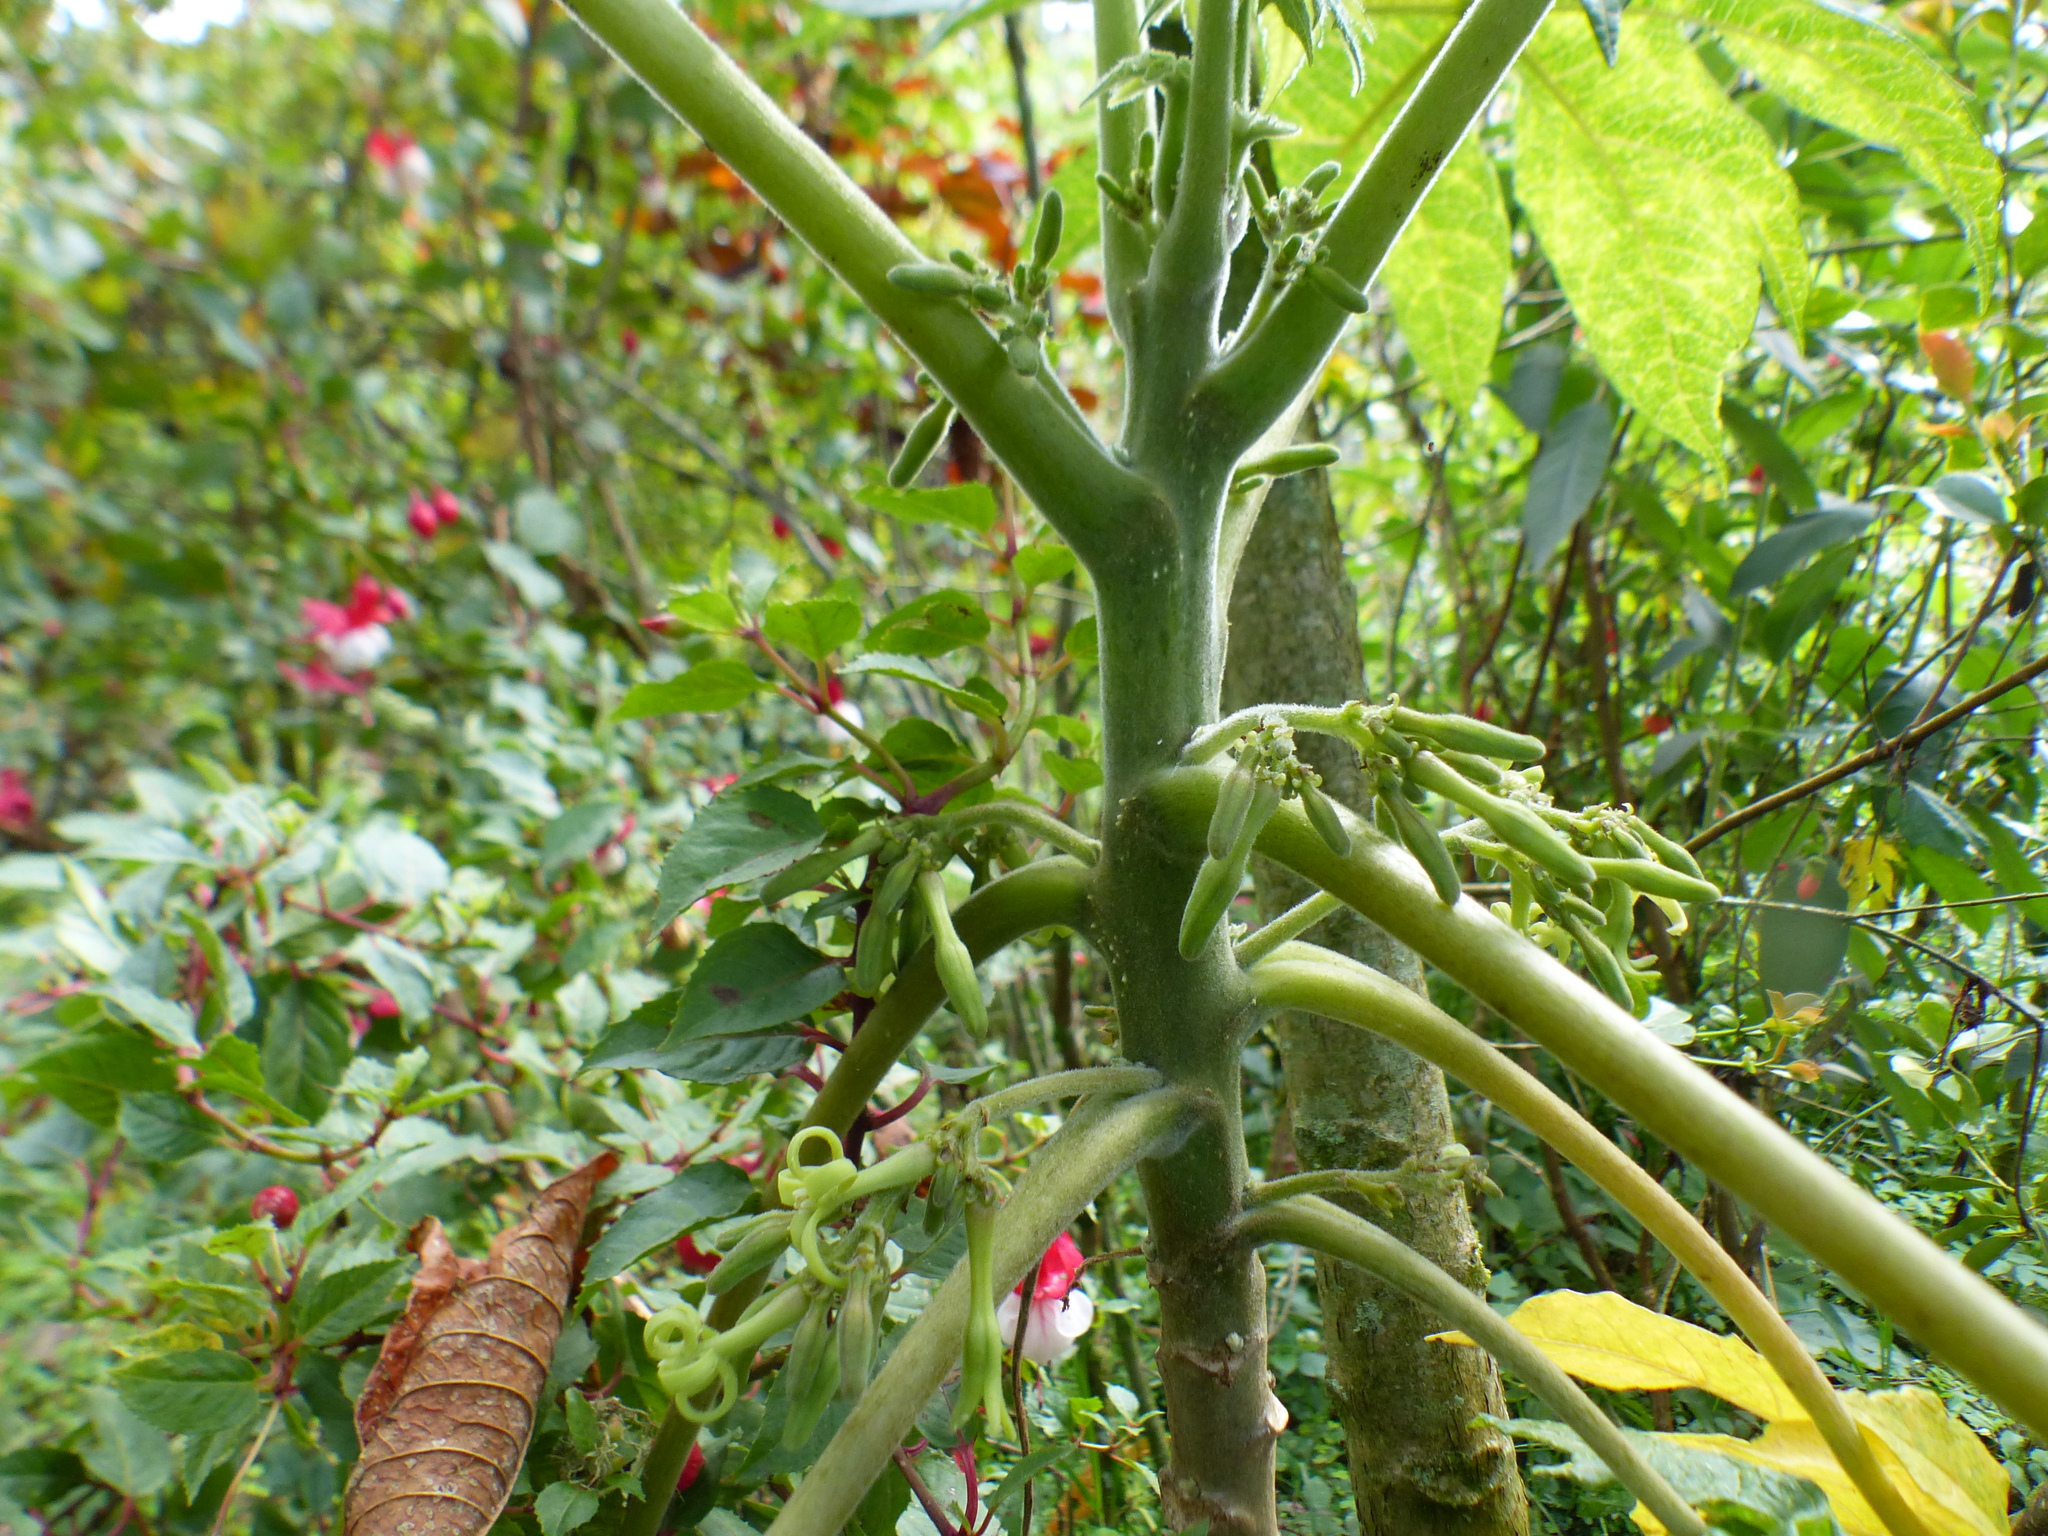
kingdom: Plantae
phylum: Tracheophyta
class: Magnoliopsida
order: Brassicales
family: Caricaceae
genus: Carica
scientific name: Carica papaya
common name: Papaya
